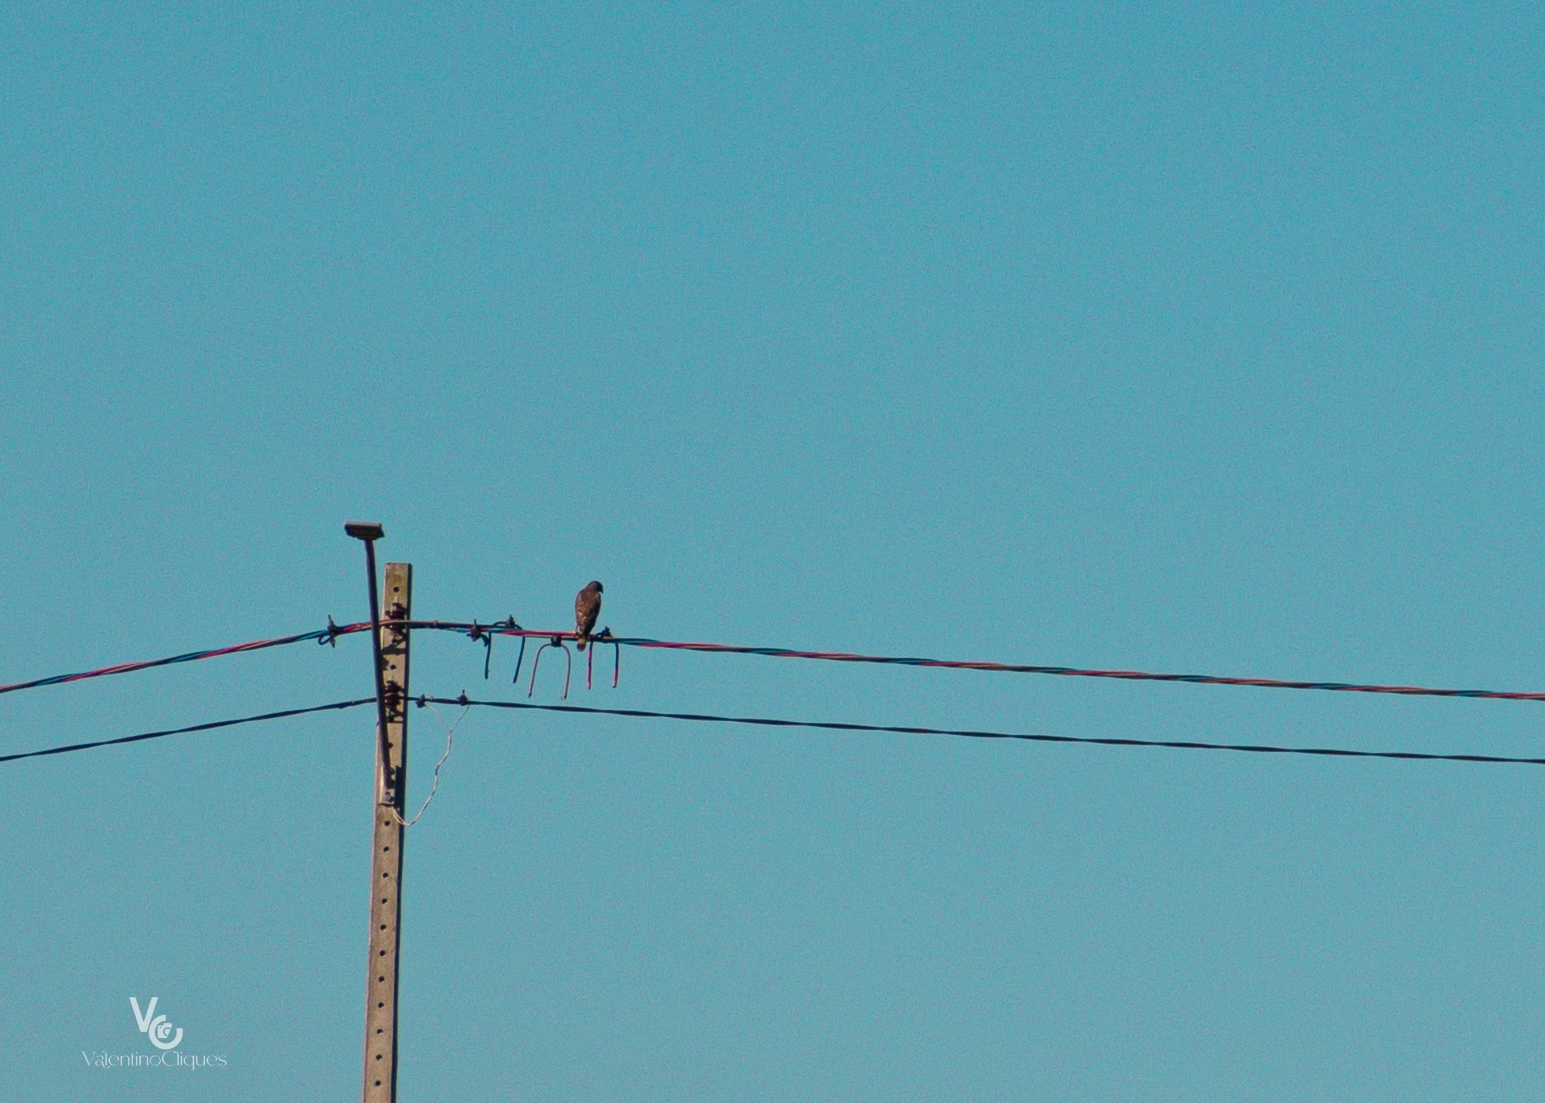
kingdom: Animalia
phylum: Chordata
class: Aves
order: Accipitriformes
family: Accipitridae
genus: Rupornis
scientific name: Rupornis magnirostris
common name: Roadside hawk
